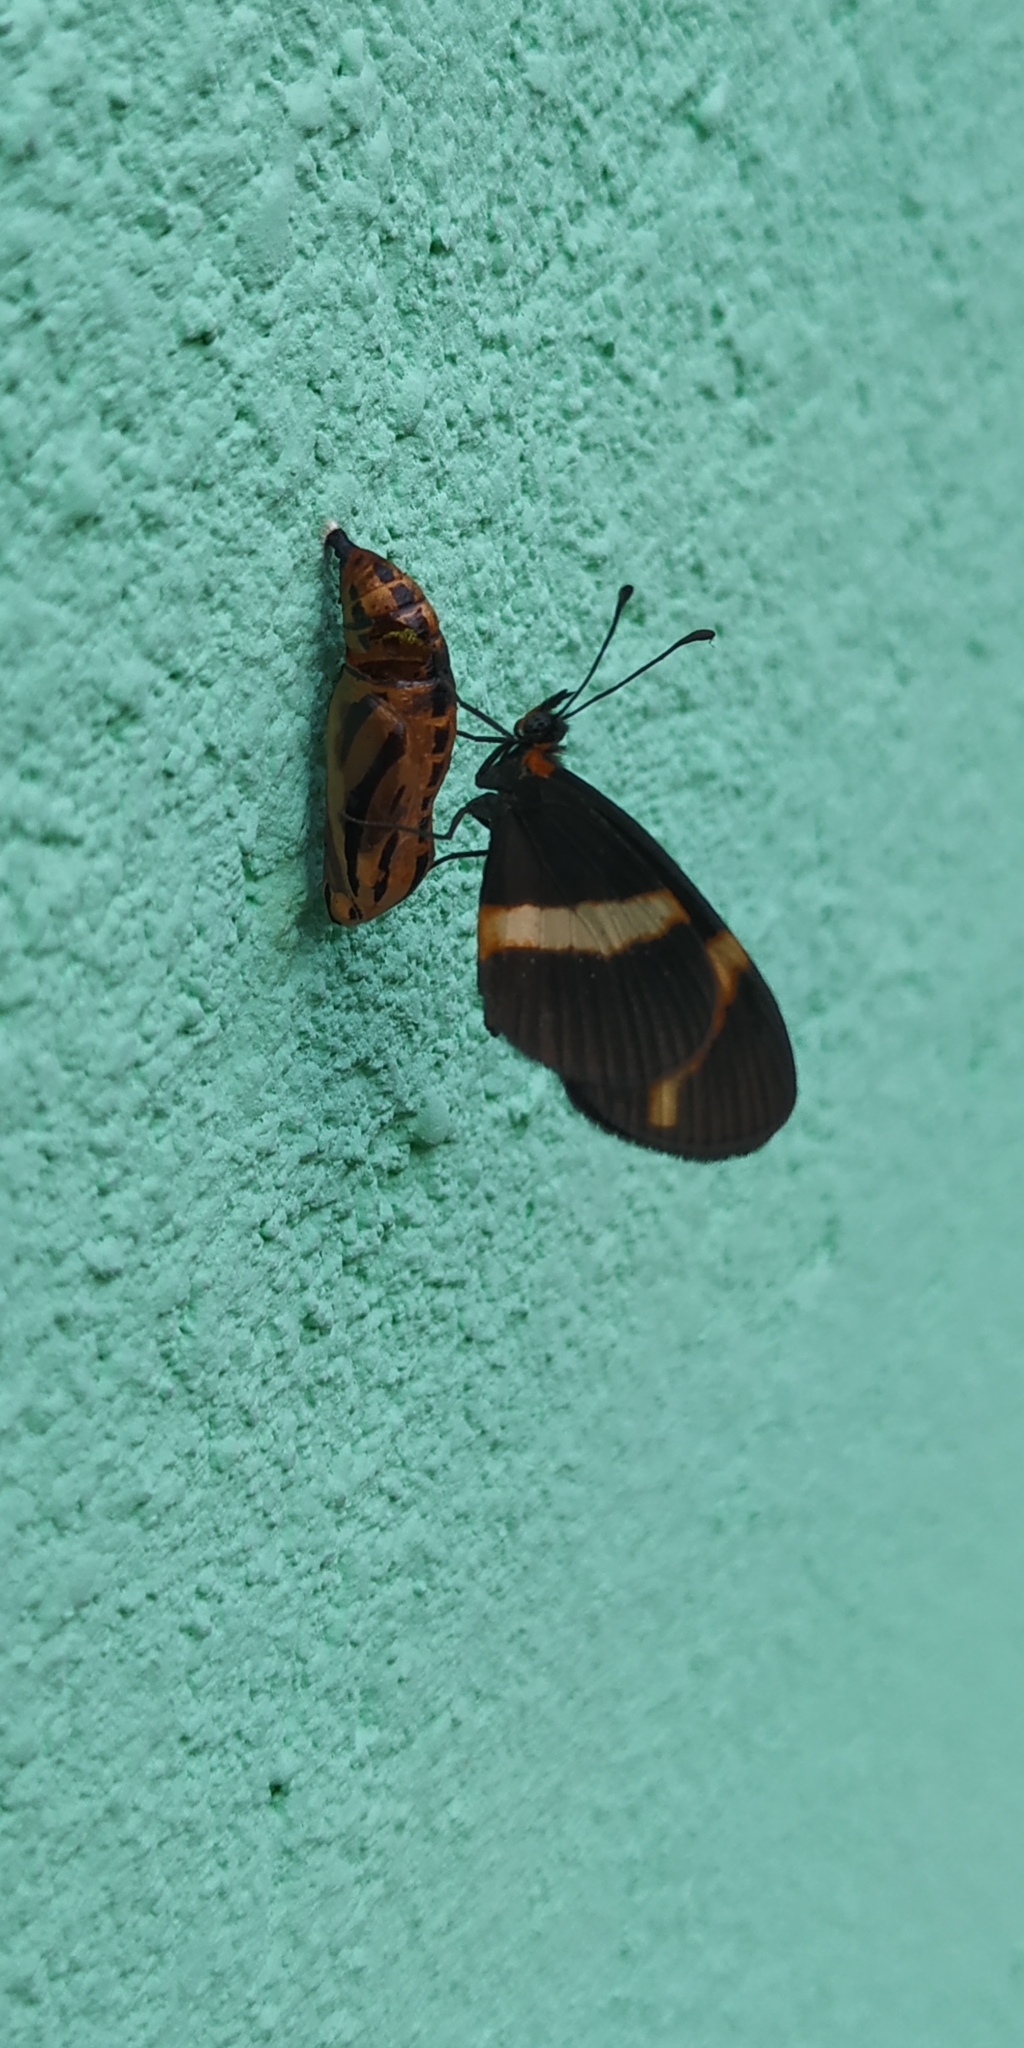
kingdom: Animalia
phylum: Arthropoda
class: Insecta
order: Lepidoptera
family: Nymphalidae
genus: Microtia
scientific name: Microtia elva
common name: Elf
